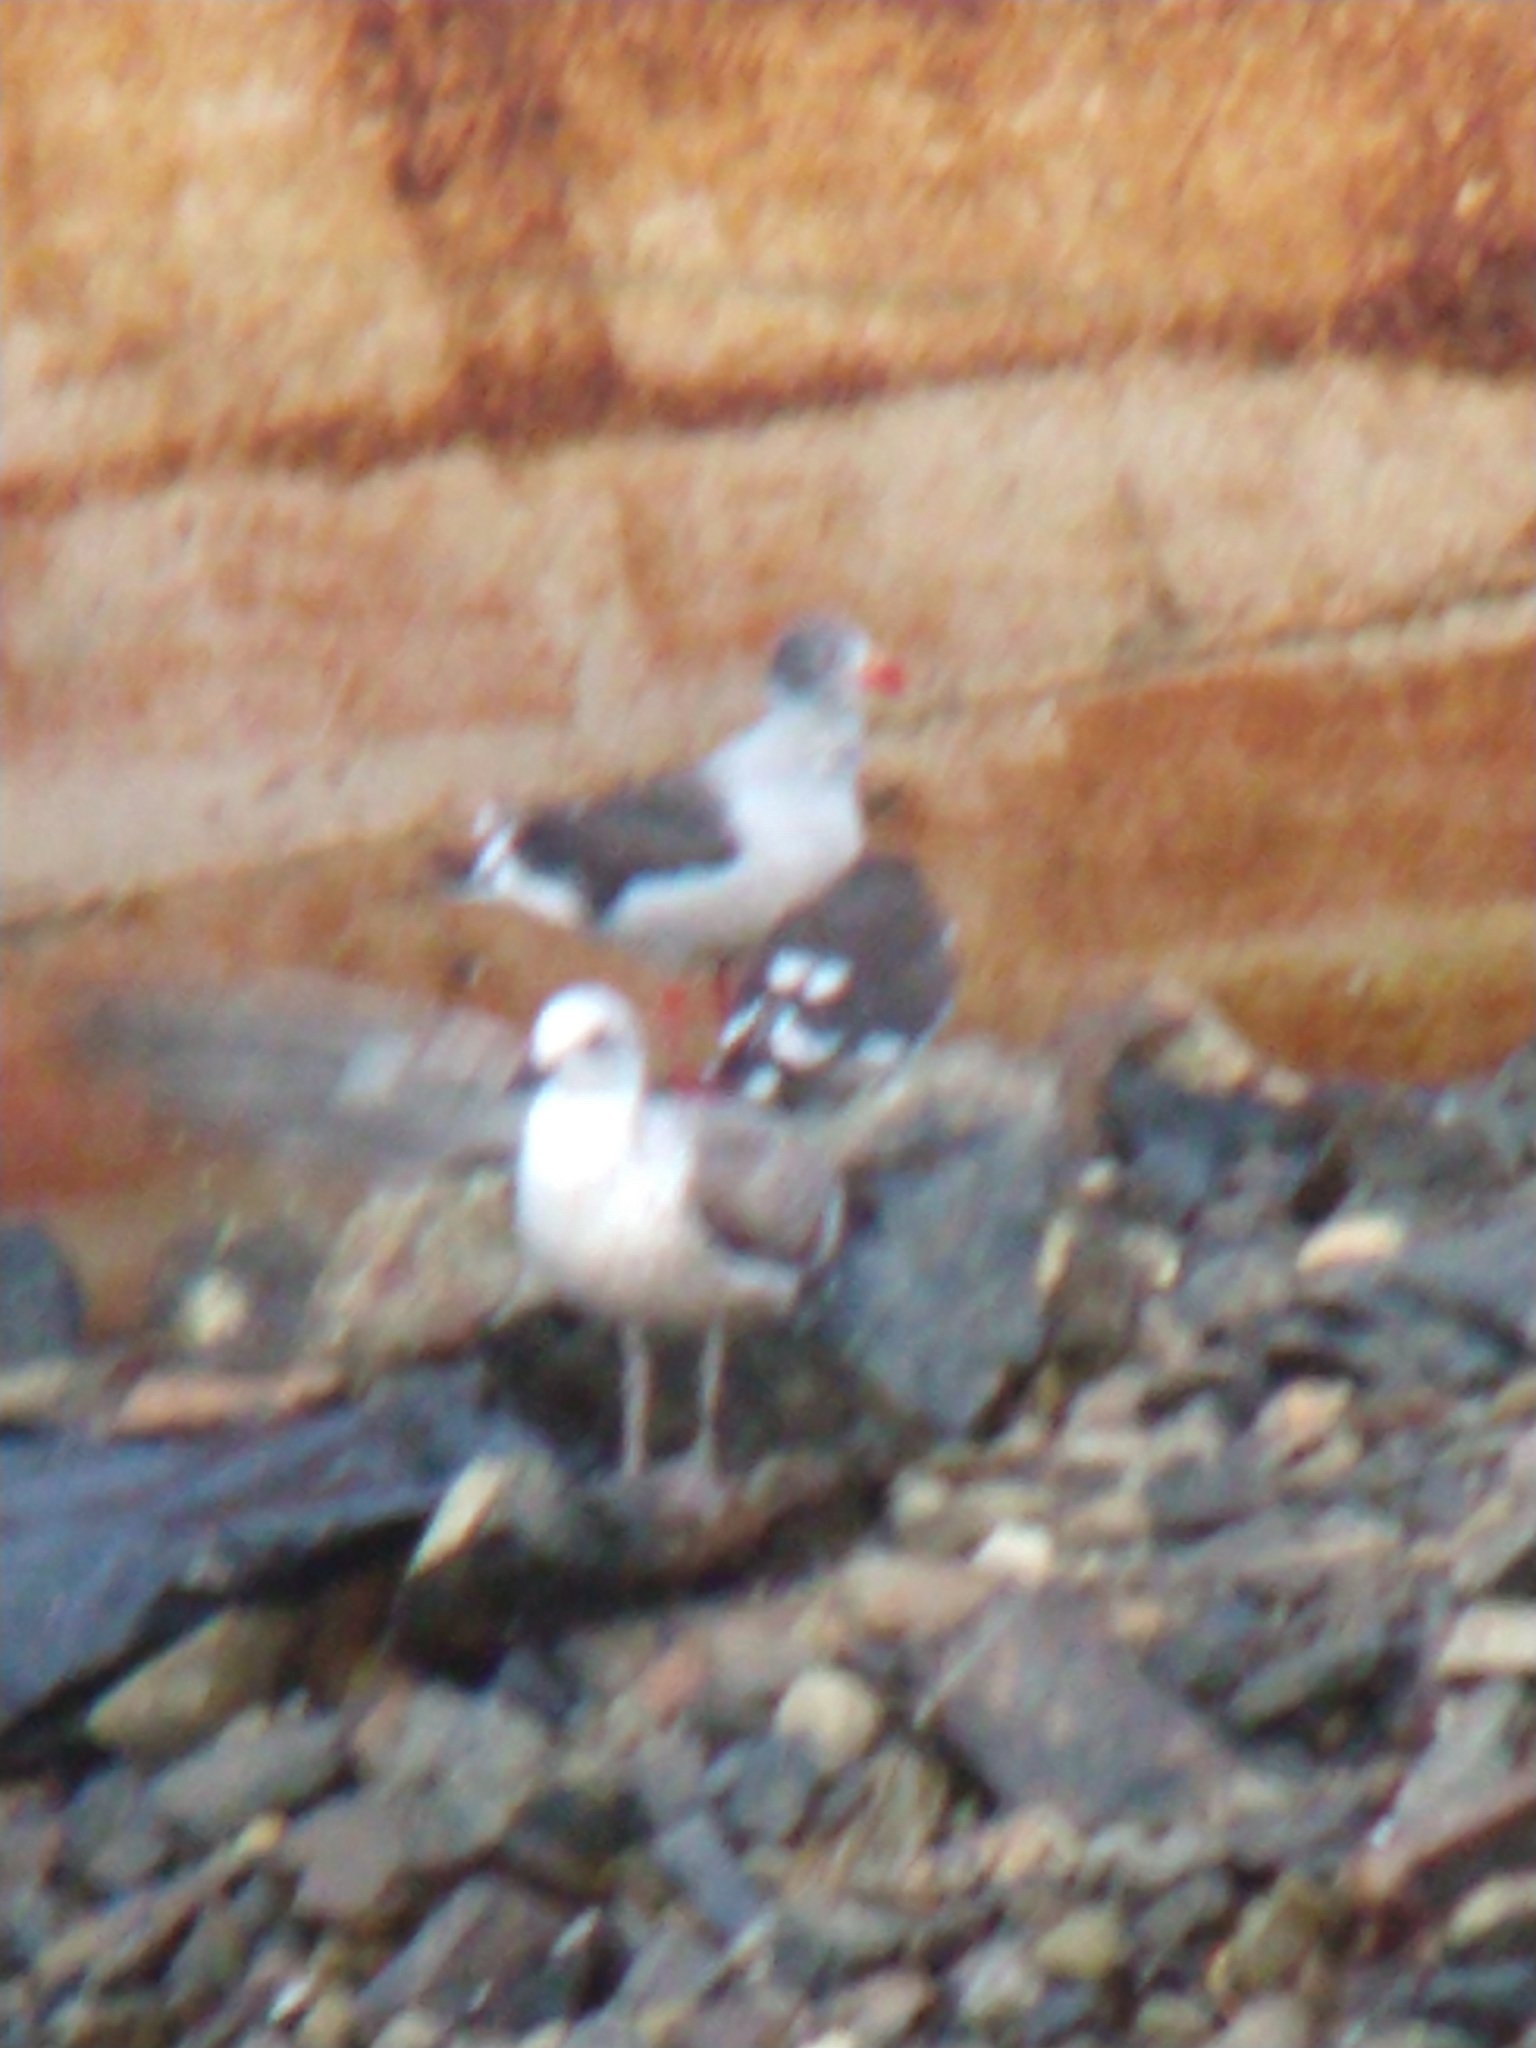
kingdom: Animalia
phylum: Chordata
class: Aves
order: Charadriiformes
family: Laridae
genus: Leucophaeus
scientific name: Leucophaeus scoresbii
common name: Dolphin gull
